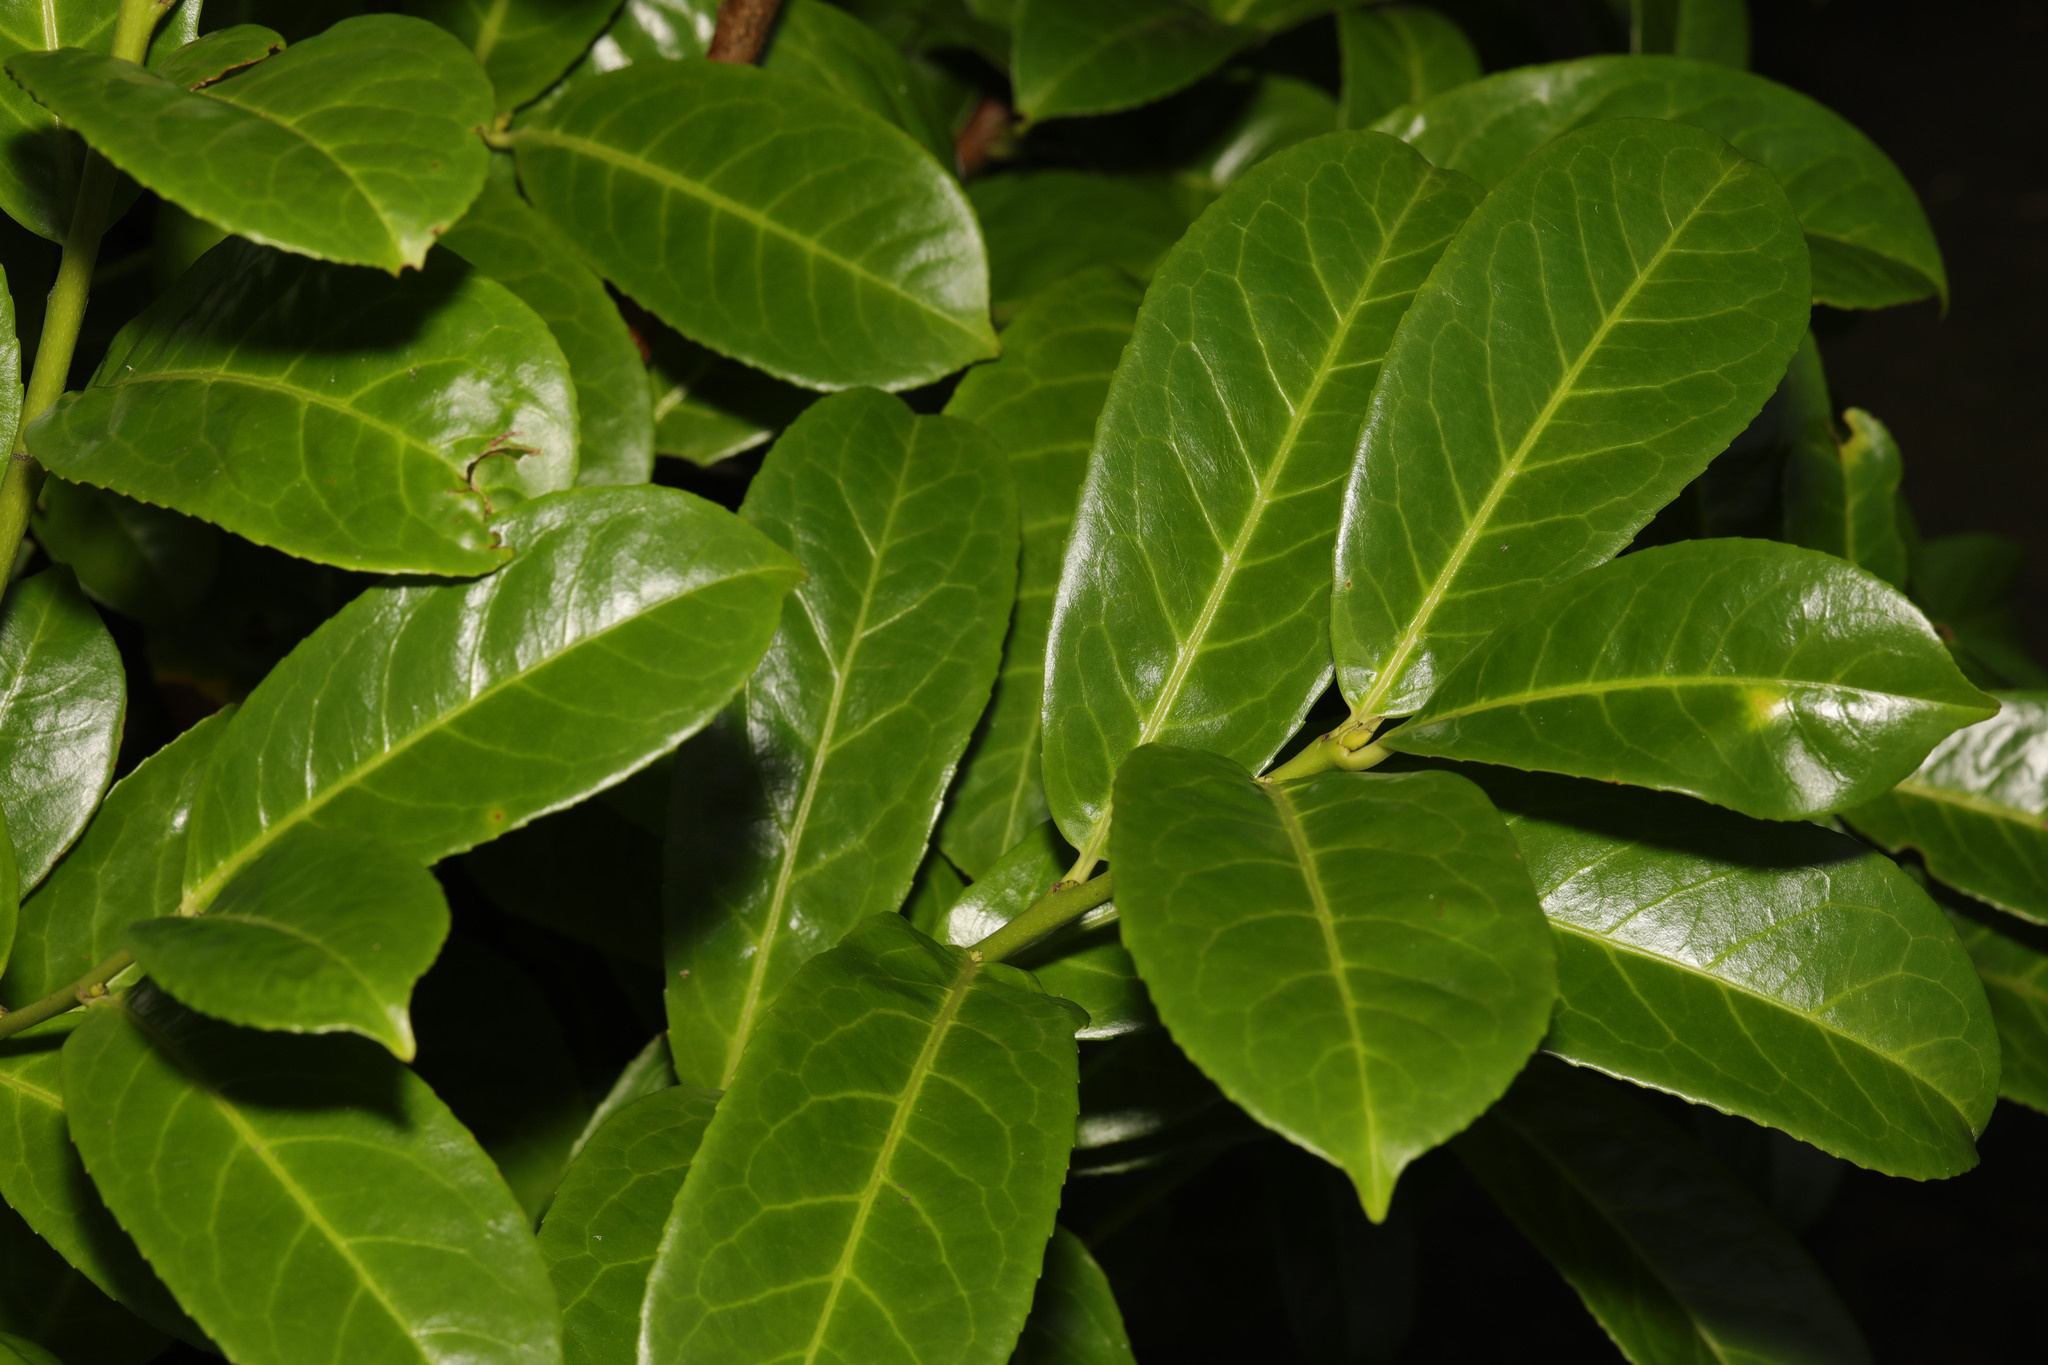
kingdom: Plantae
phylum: Tracheophyta
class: Magnoliopsida
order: Rosales
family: Rosaceae
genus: Prunus
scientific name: Prunus laurocerasus
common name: Cherry laurel
